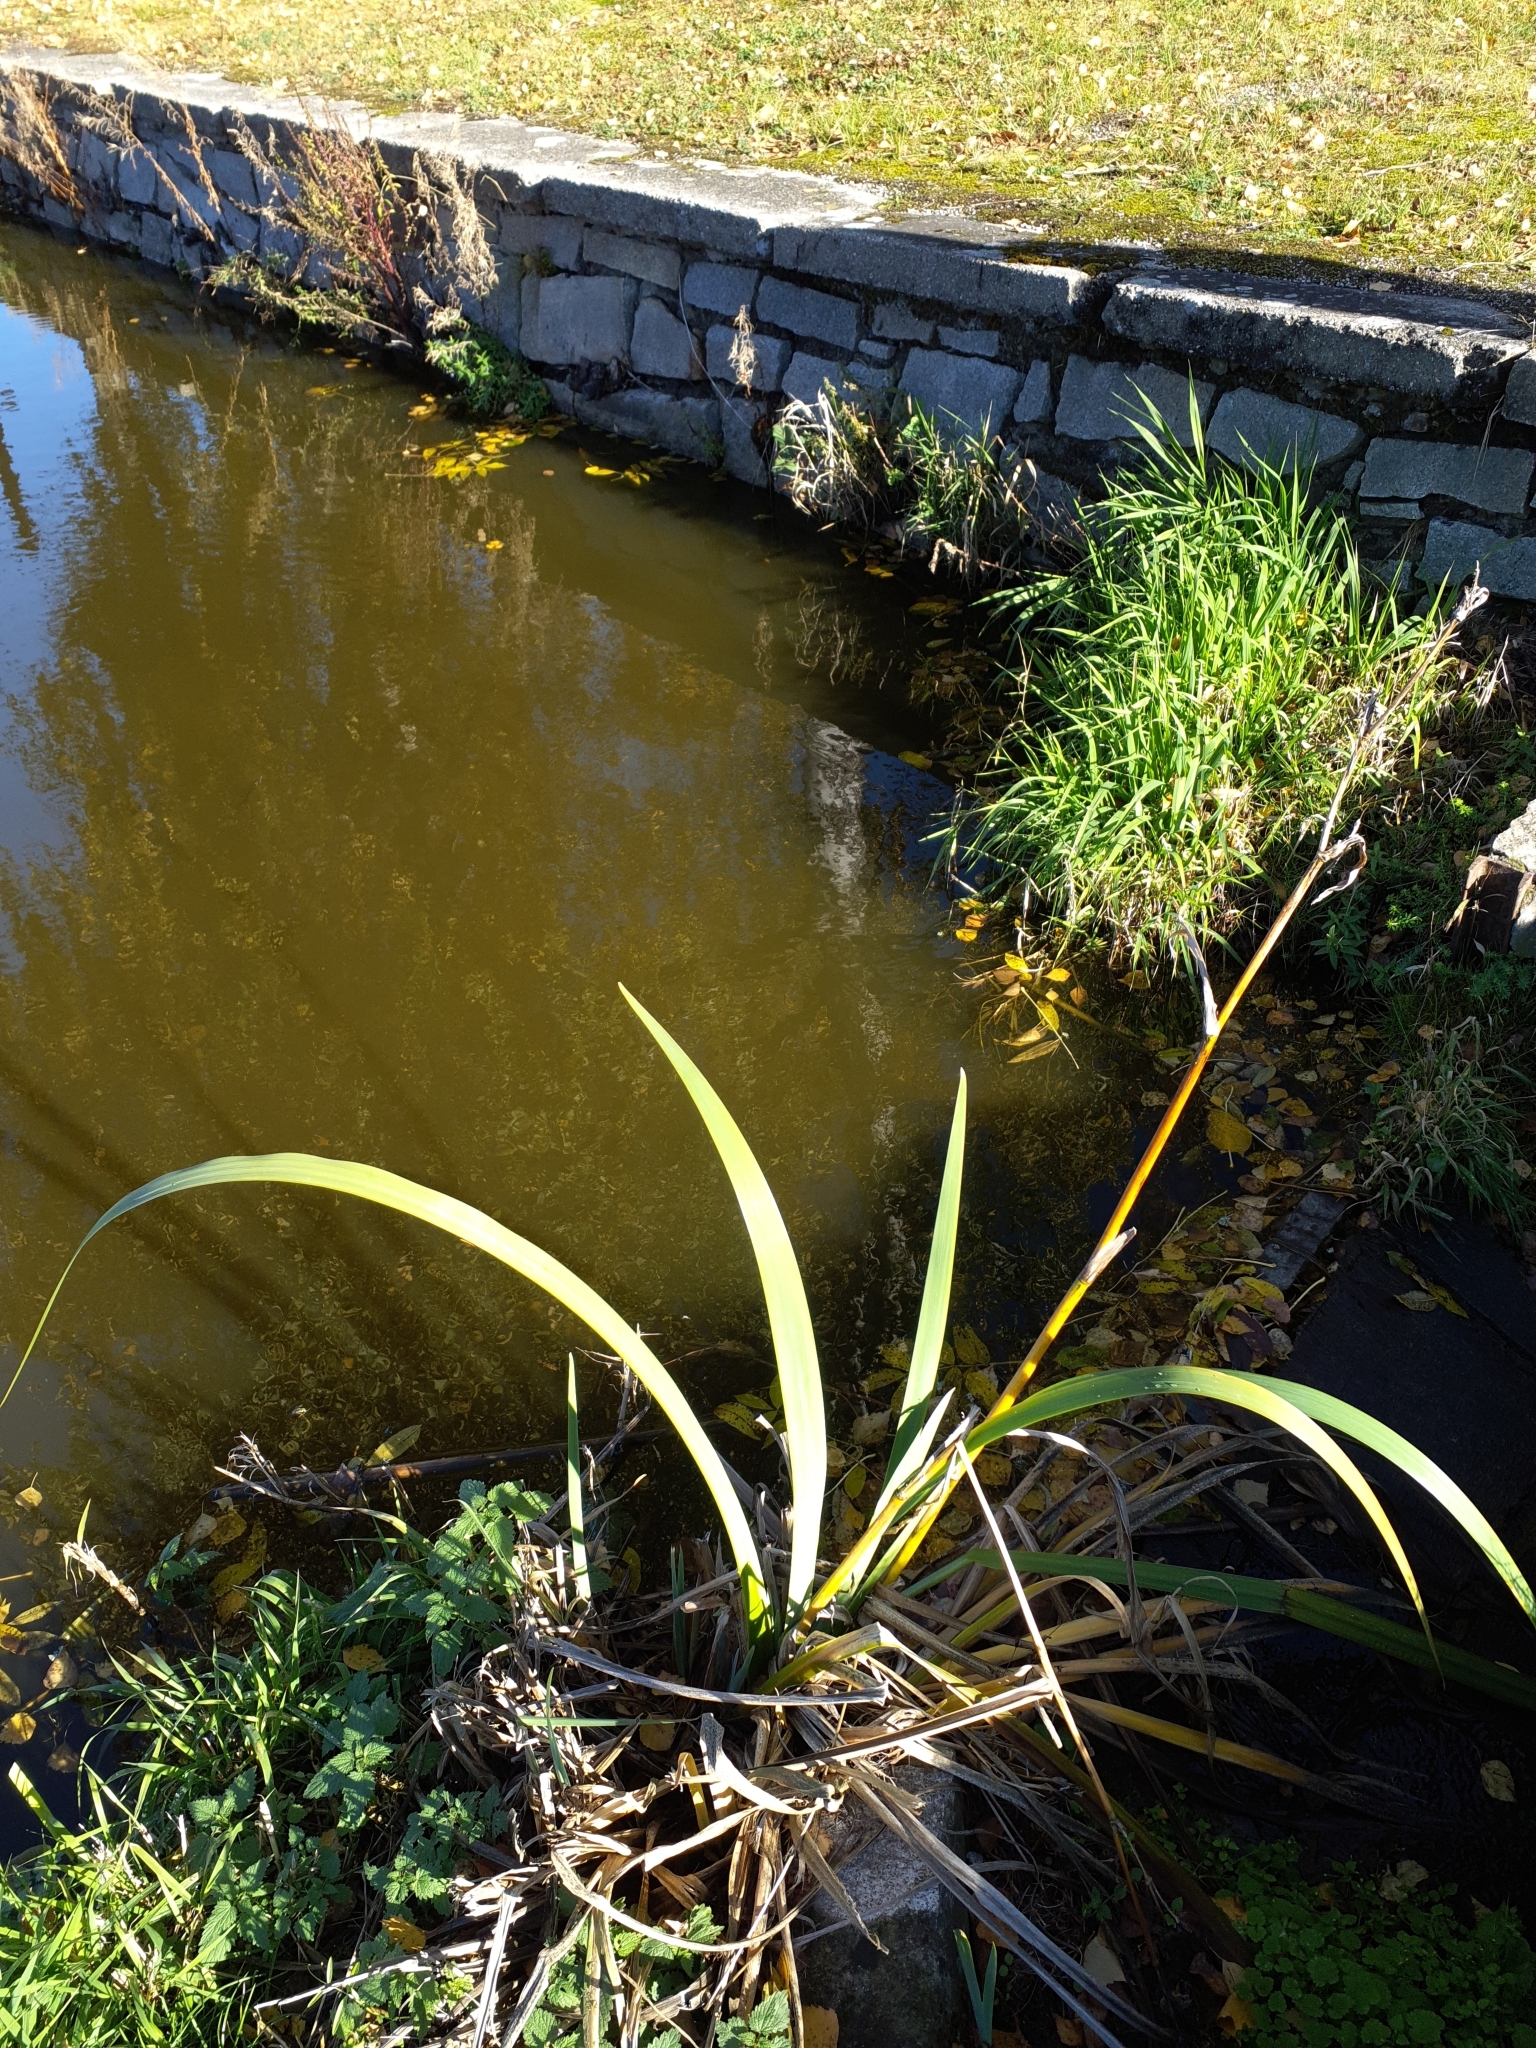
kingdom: Plantae
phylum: Tracheophyta
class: Liliopsida
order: Asparagales
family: Iridaceae
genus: Iris
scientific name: Iris pseudacorus
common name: Yellow flag
